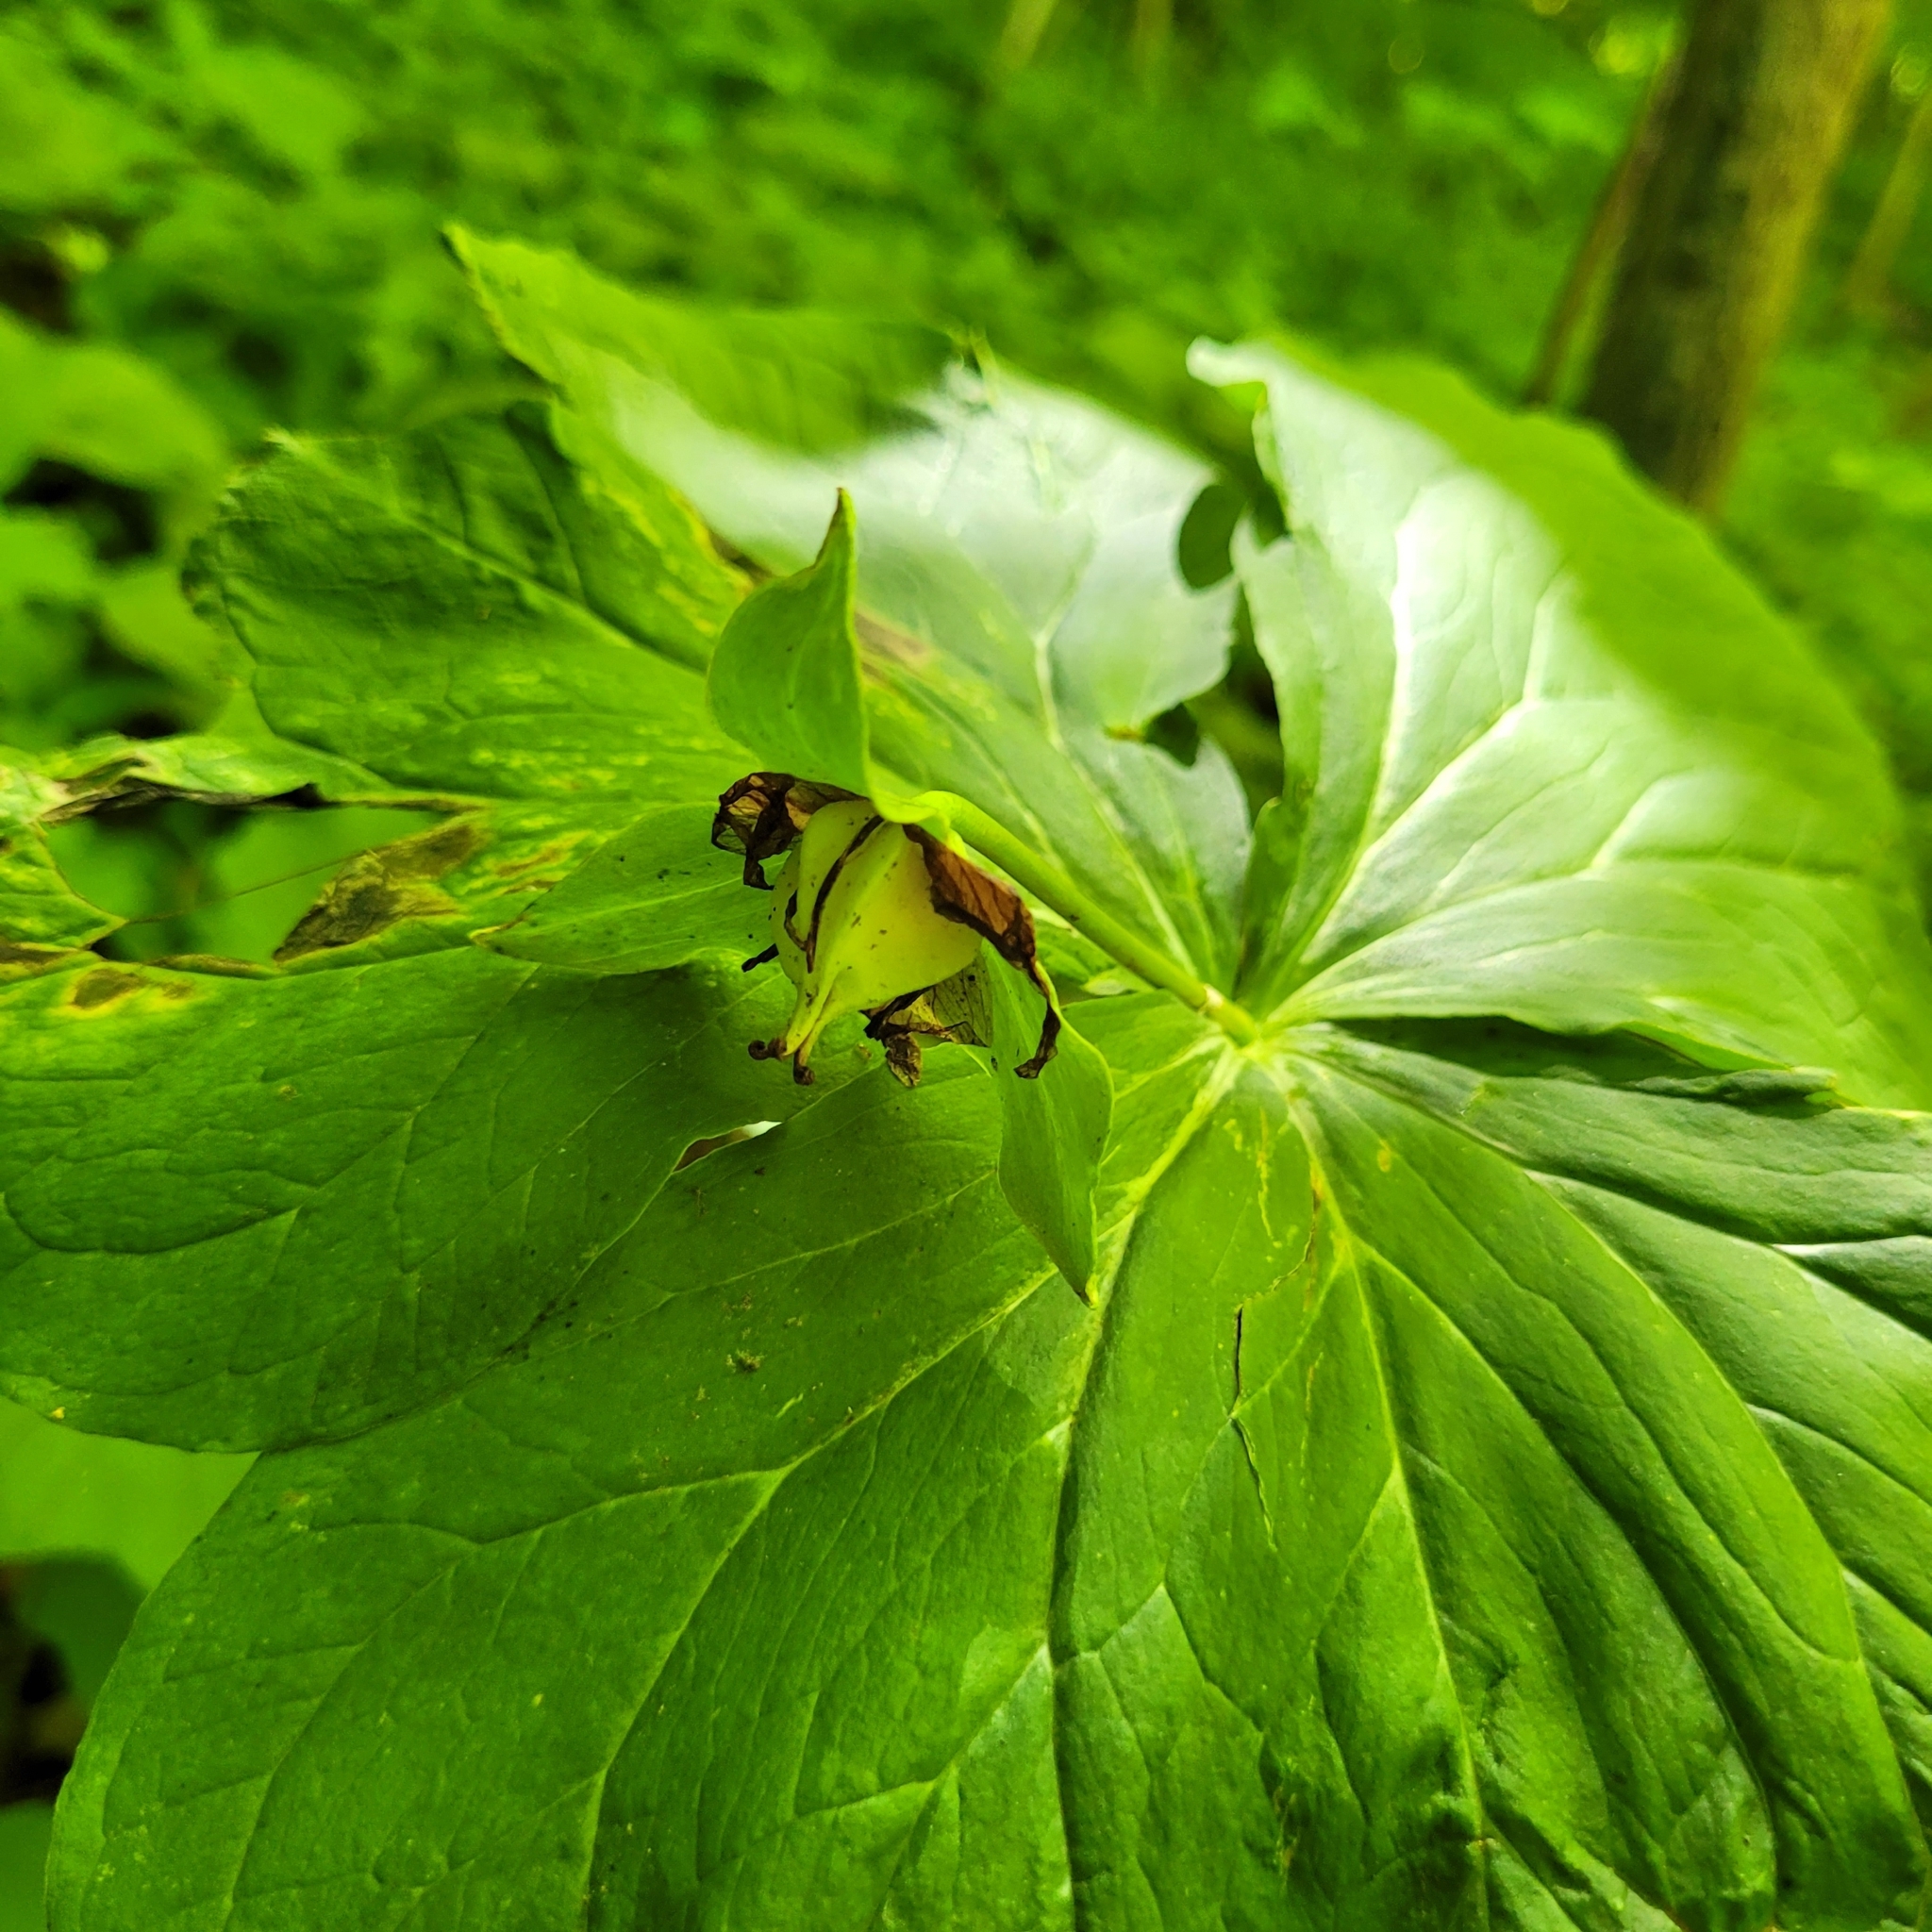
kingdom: Plantae
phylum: Tracheophyta
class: Liliopsida
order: Liliales
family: Melanthiaceae
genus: Trillium
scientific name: Trillium flexipes
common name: Drooping trillium
